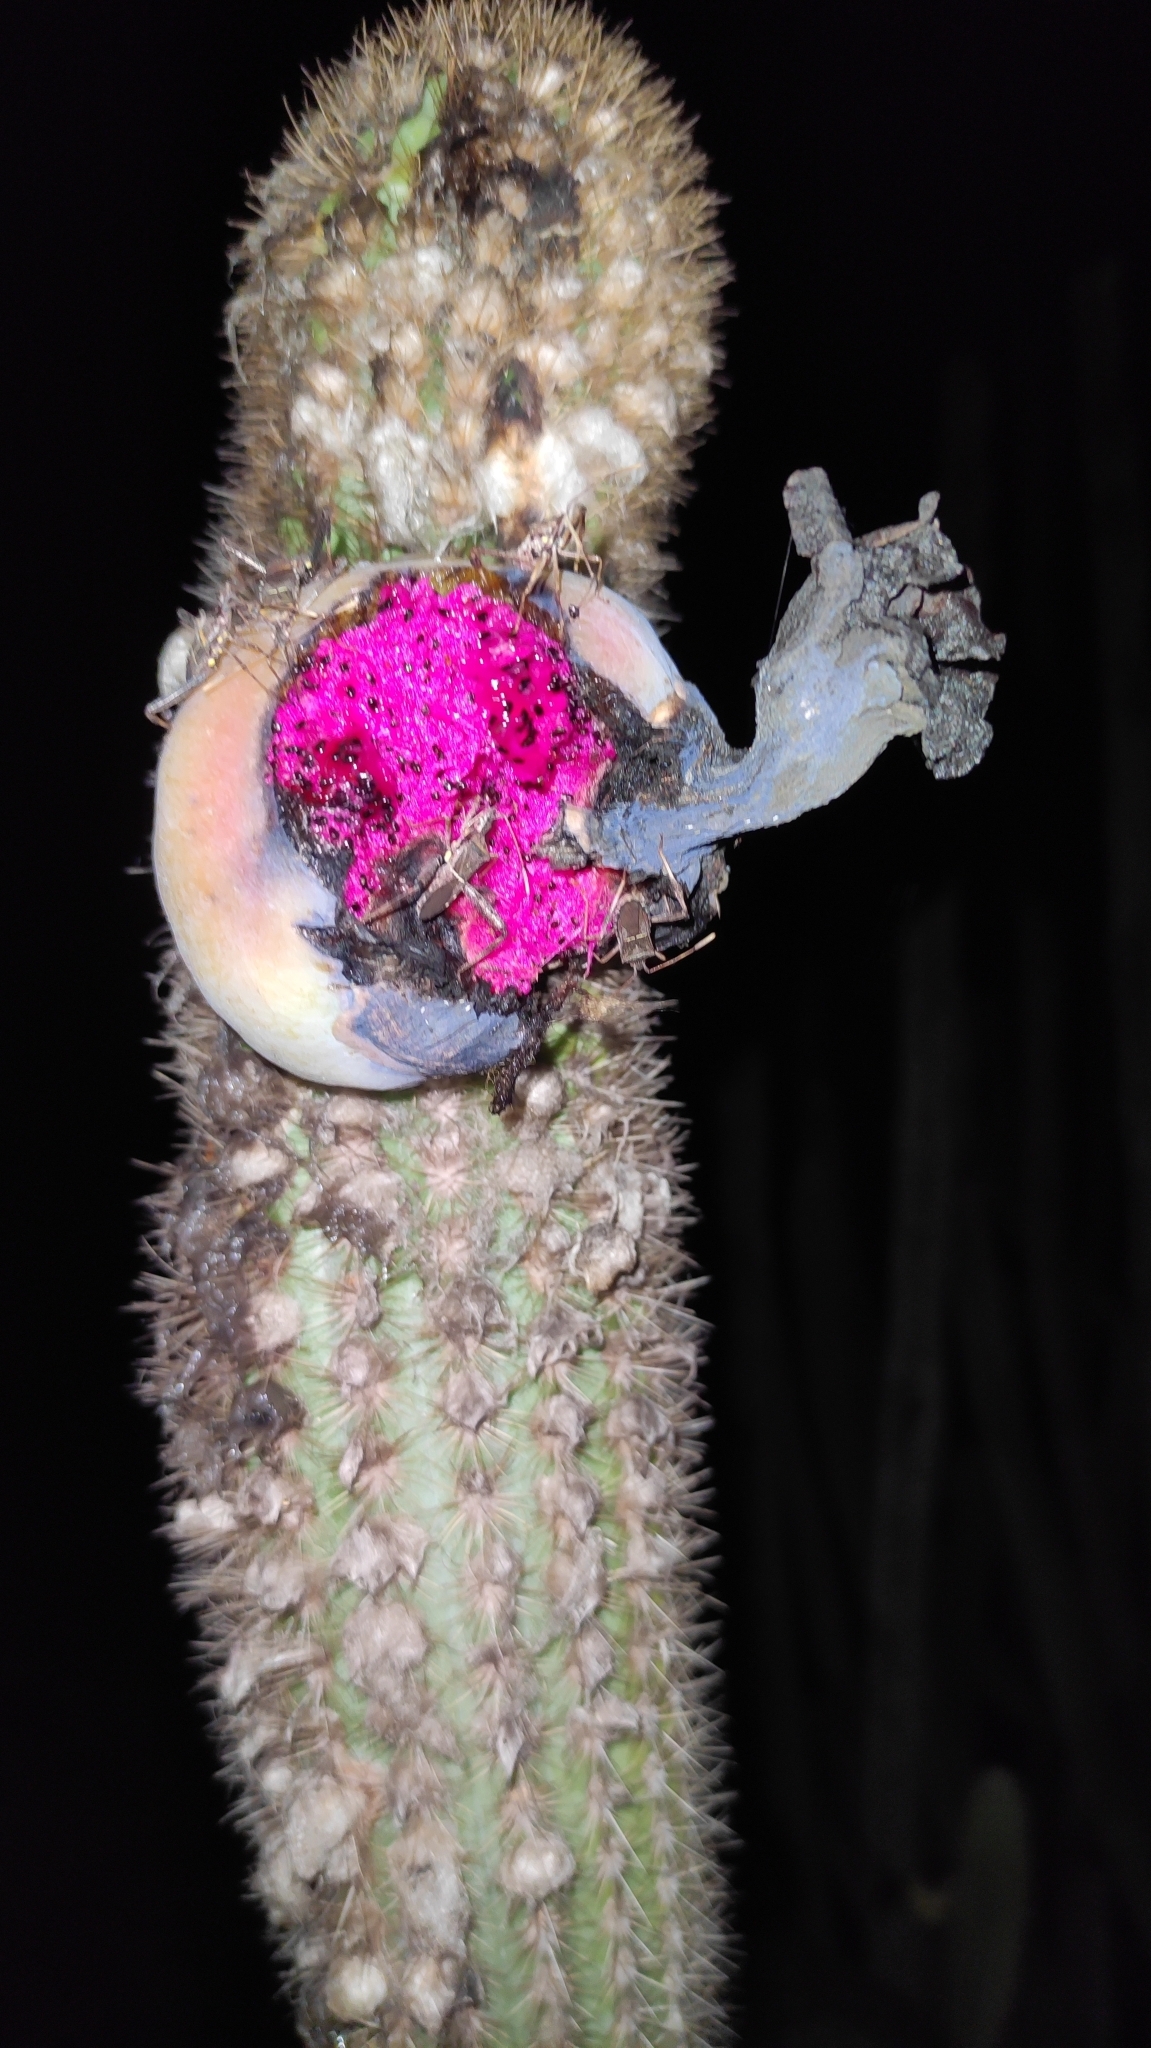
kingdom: Plantae
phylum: Tracheophyta
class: Magnoliopsida
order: Caryophyllales
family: Cactaceae
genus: Pilosocereus
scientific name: Pilosocereus pachycladus
